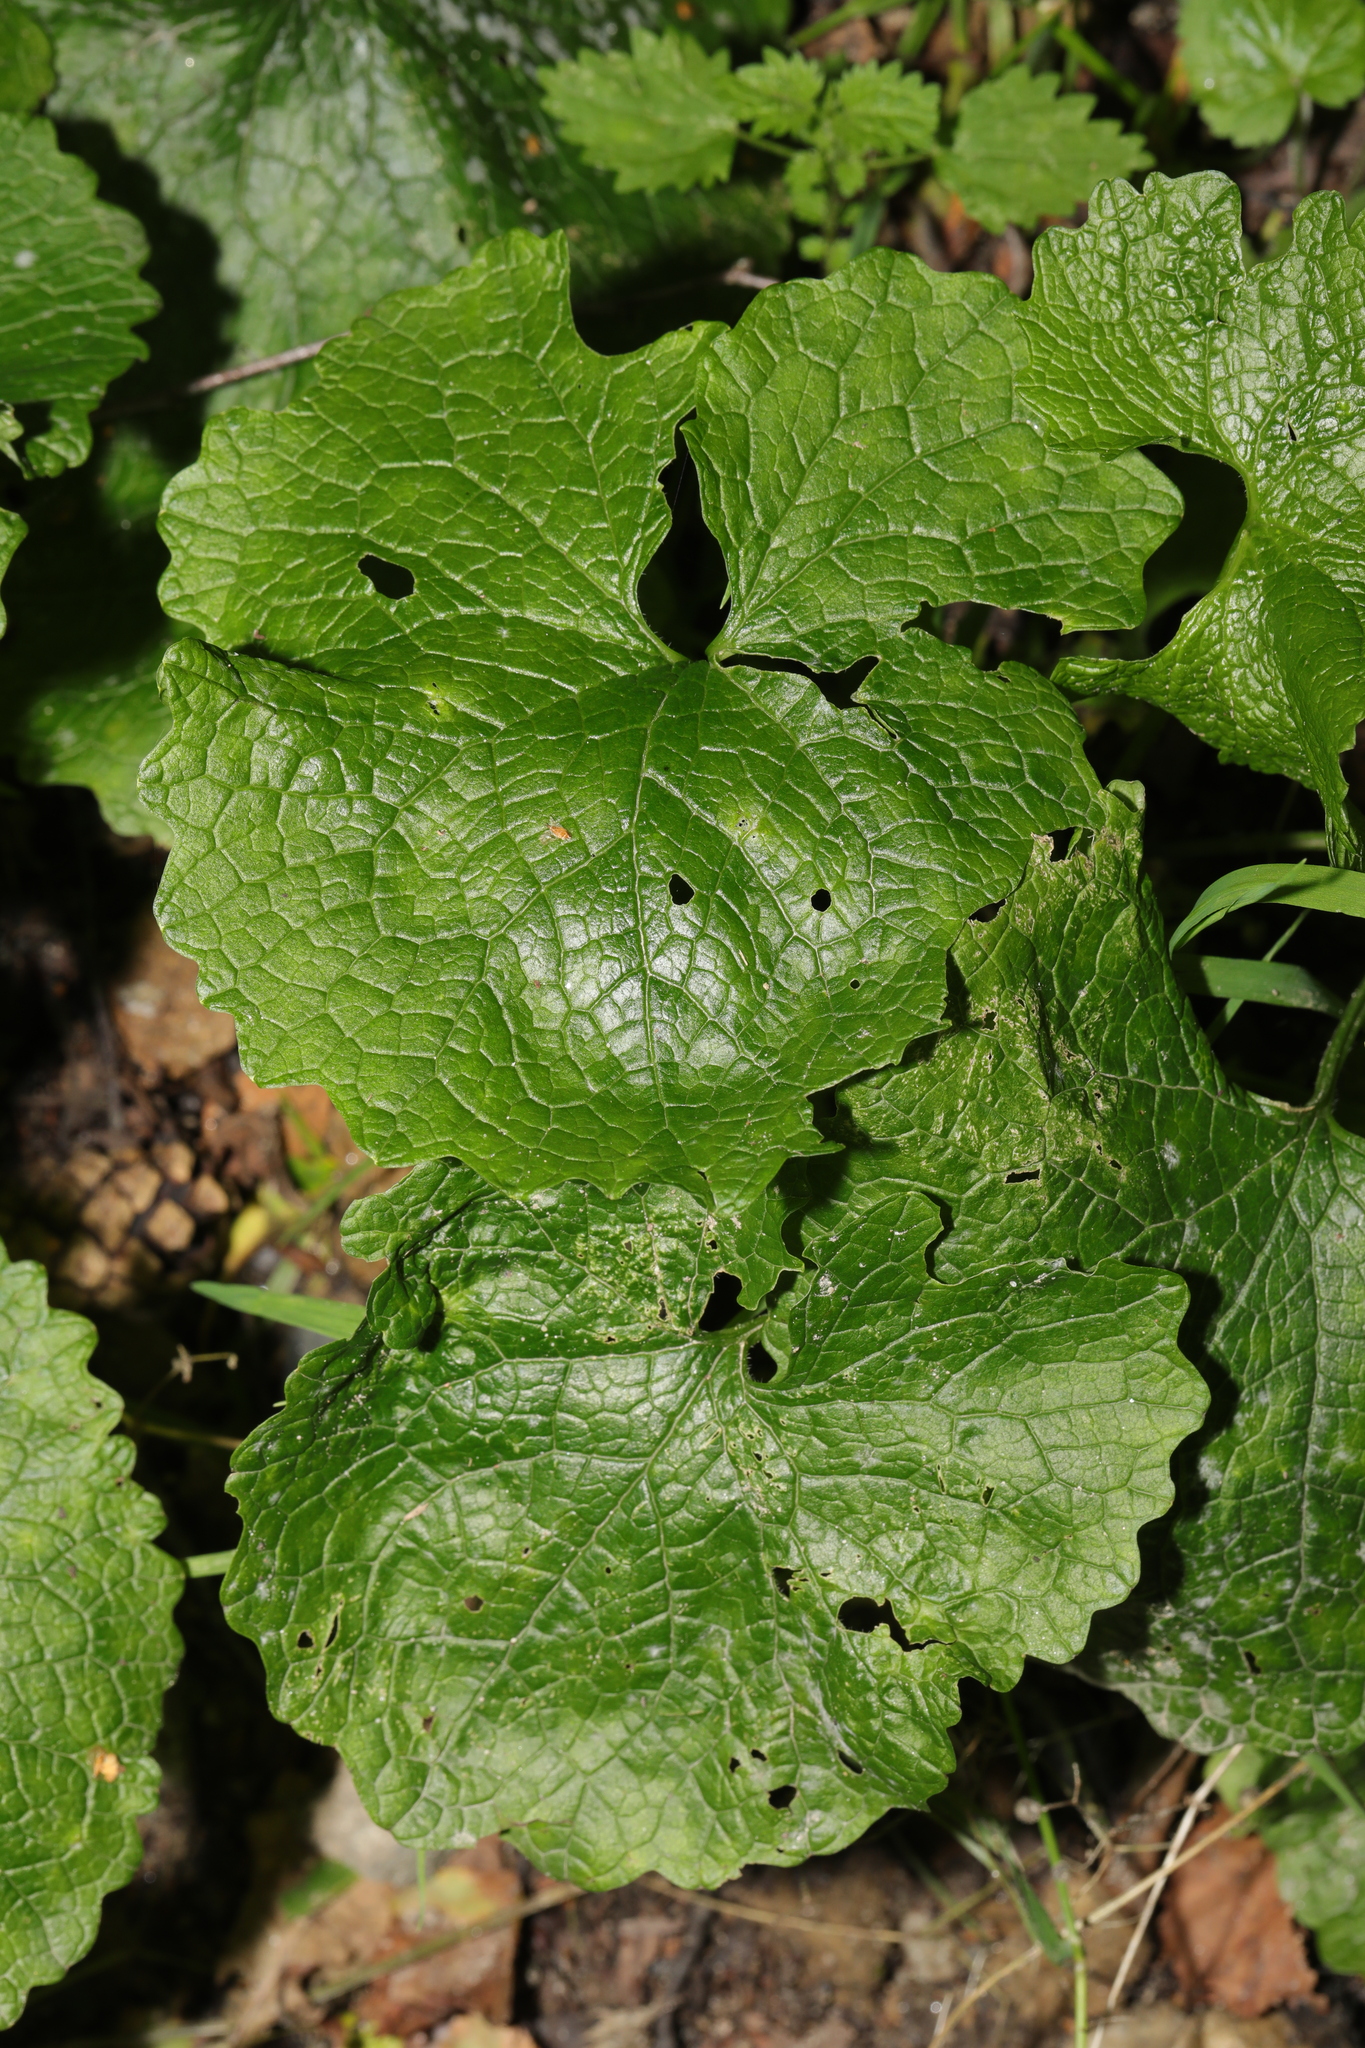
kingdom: Plantae
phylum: Tracheophyta
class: Magnoliopsida
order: Brassicales
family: Brassicaceae
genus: Alliaria
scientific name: Alliaria petiolata
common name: Garlic mustard
